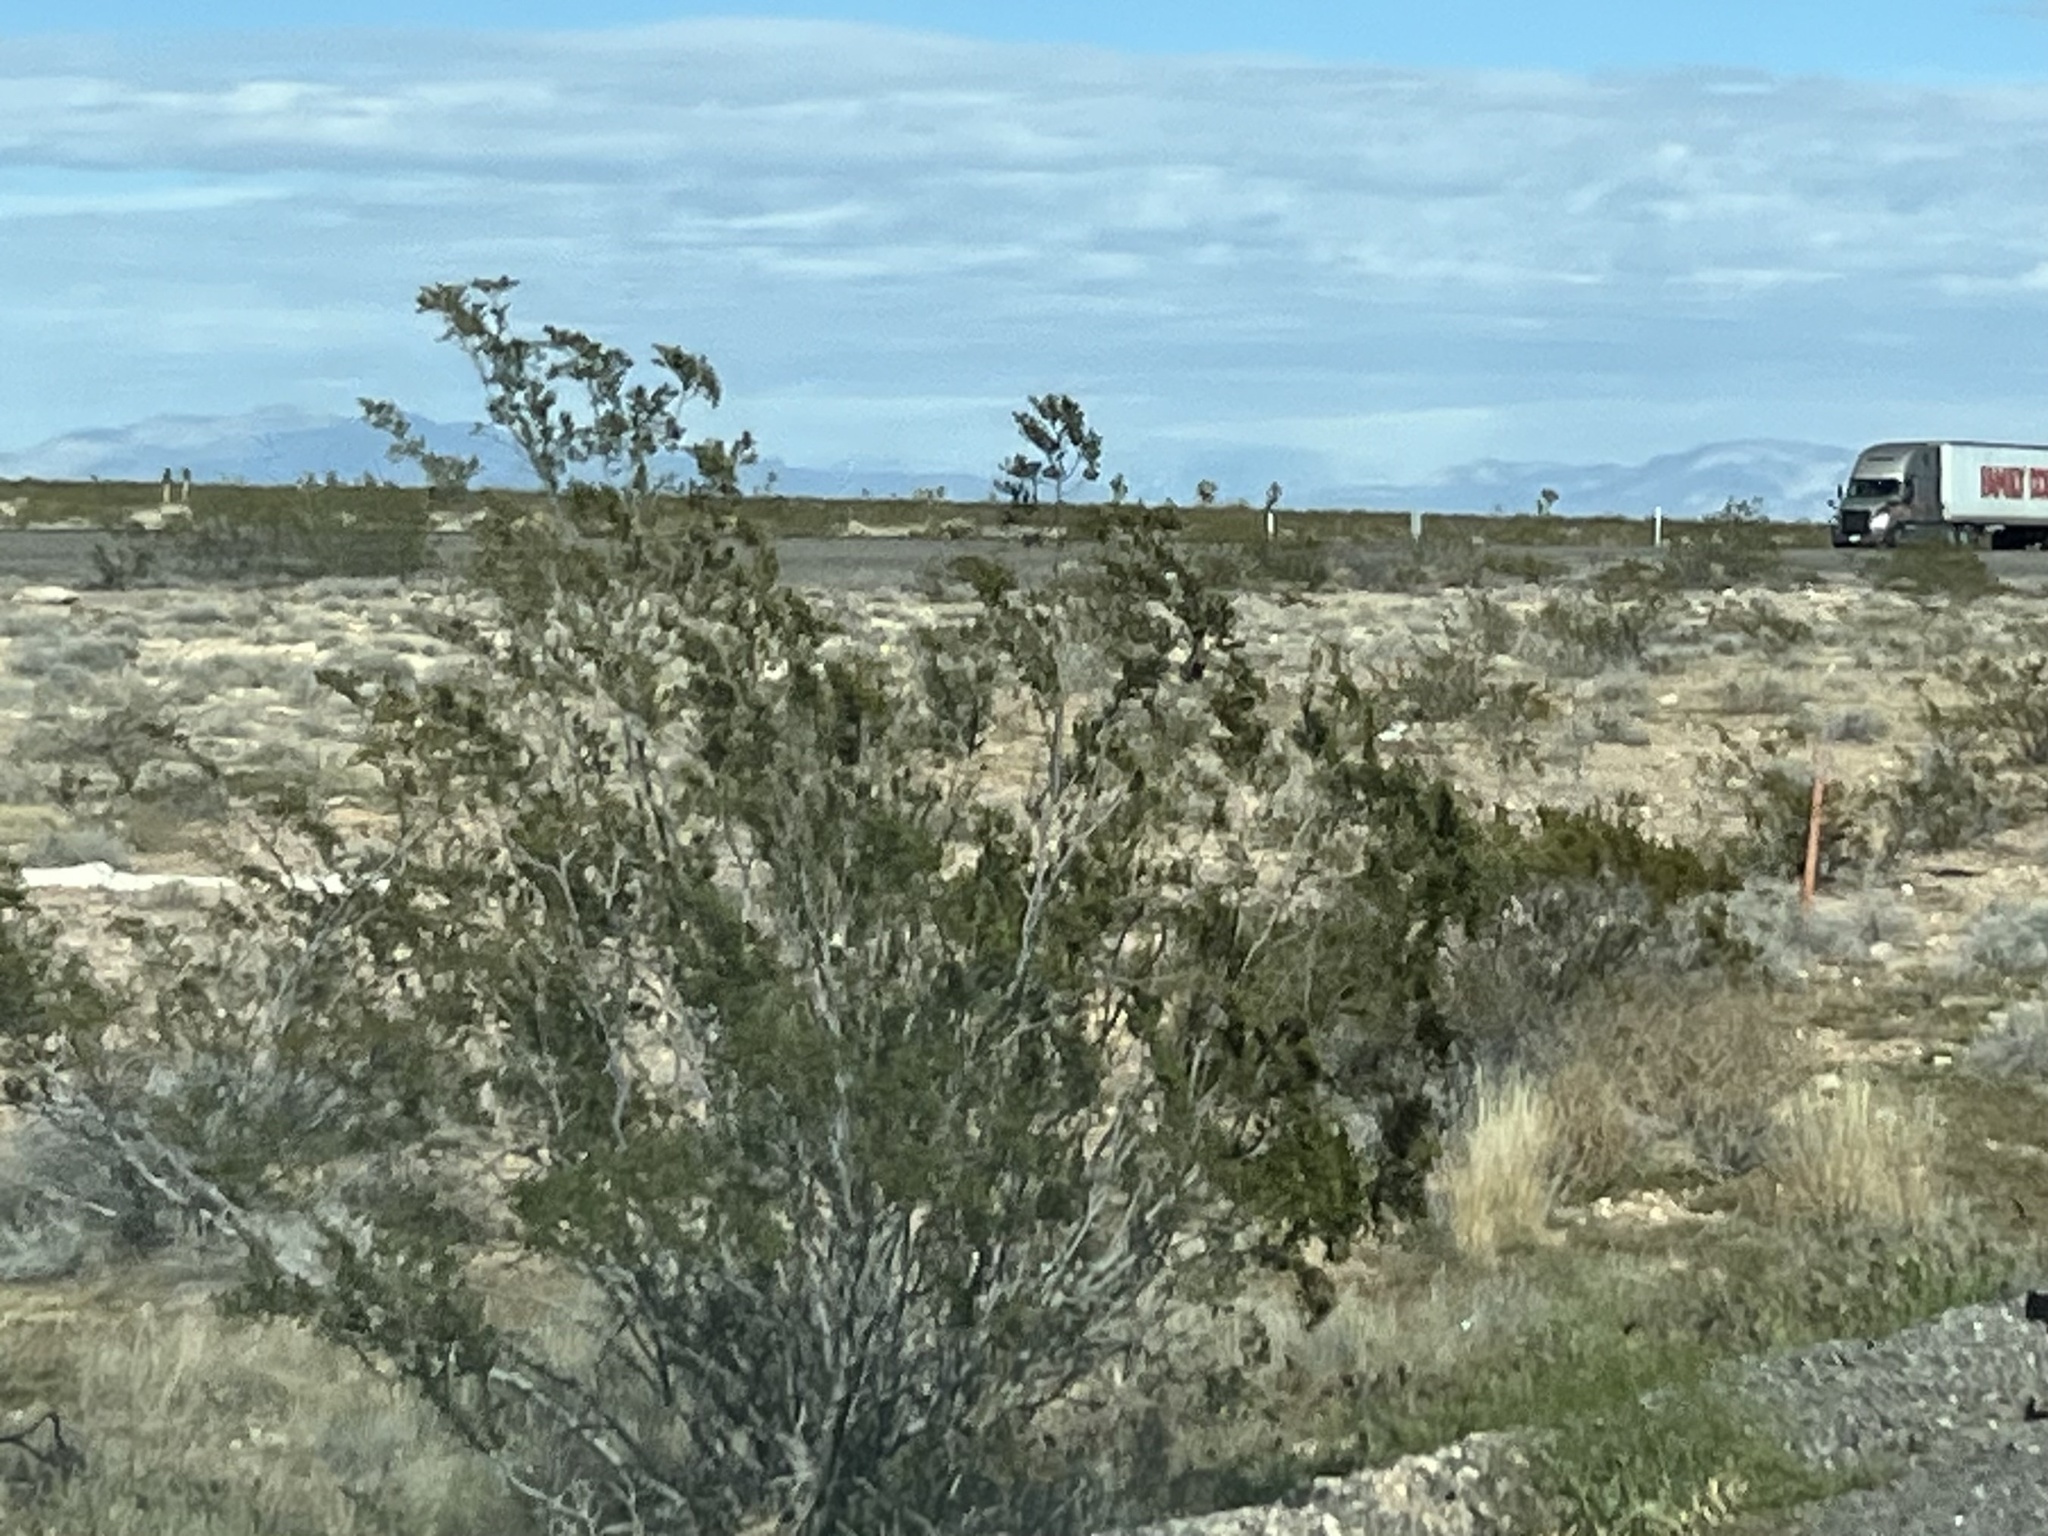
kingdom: Plantae
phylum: Tracheophyta
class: Magnoliopsida
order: Zygophyllales
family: Zygophyllaceae
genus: Larrea
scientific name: Larrea tridentata
